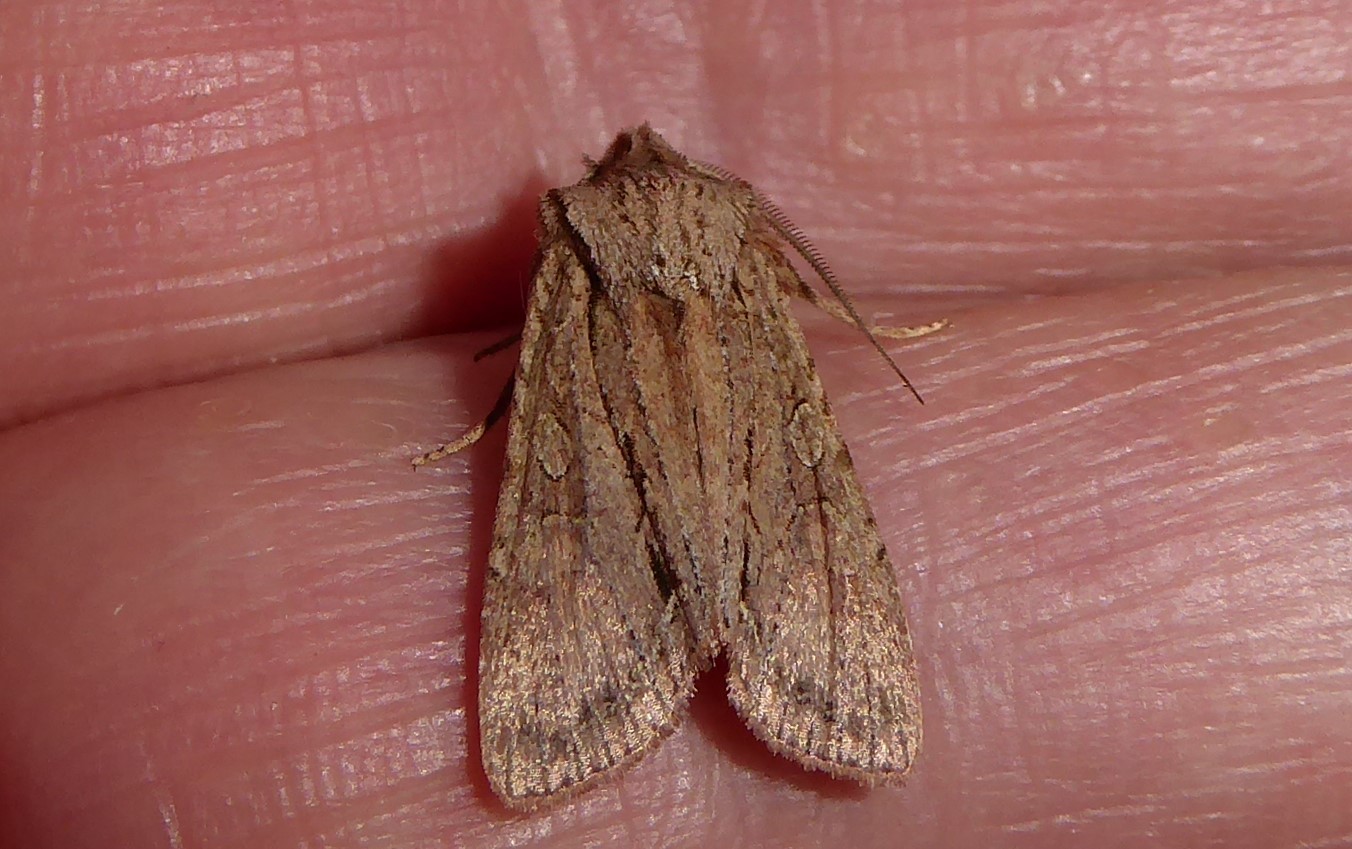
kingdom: Animalia
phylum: Arthropoda
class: Insecta
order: Lepidoptera
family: Noctuidae
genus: Ichneutica
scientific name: Ichneutica
